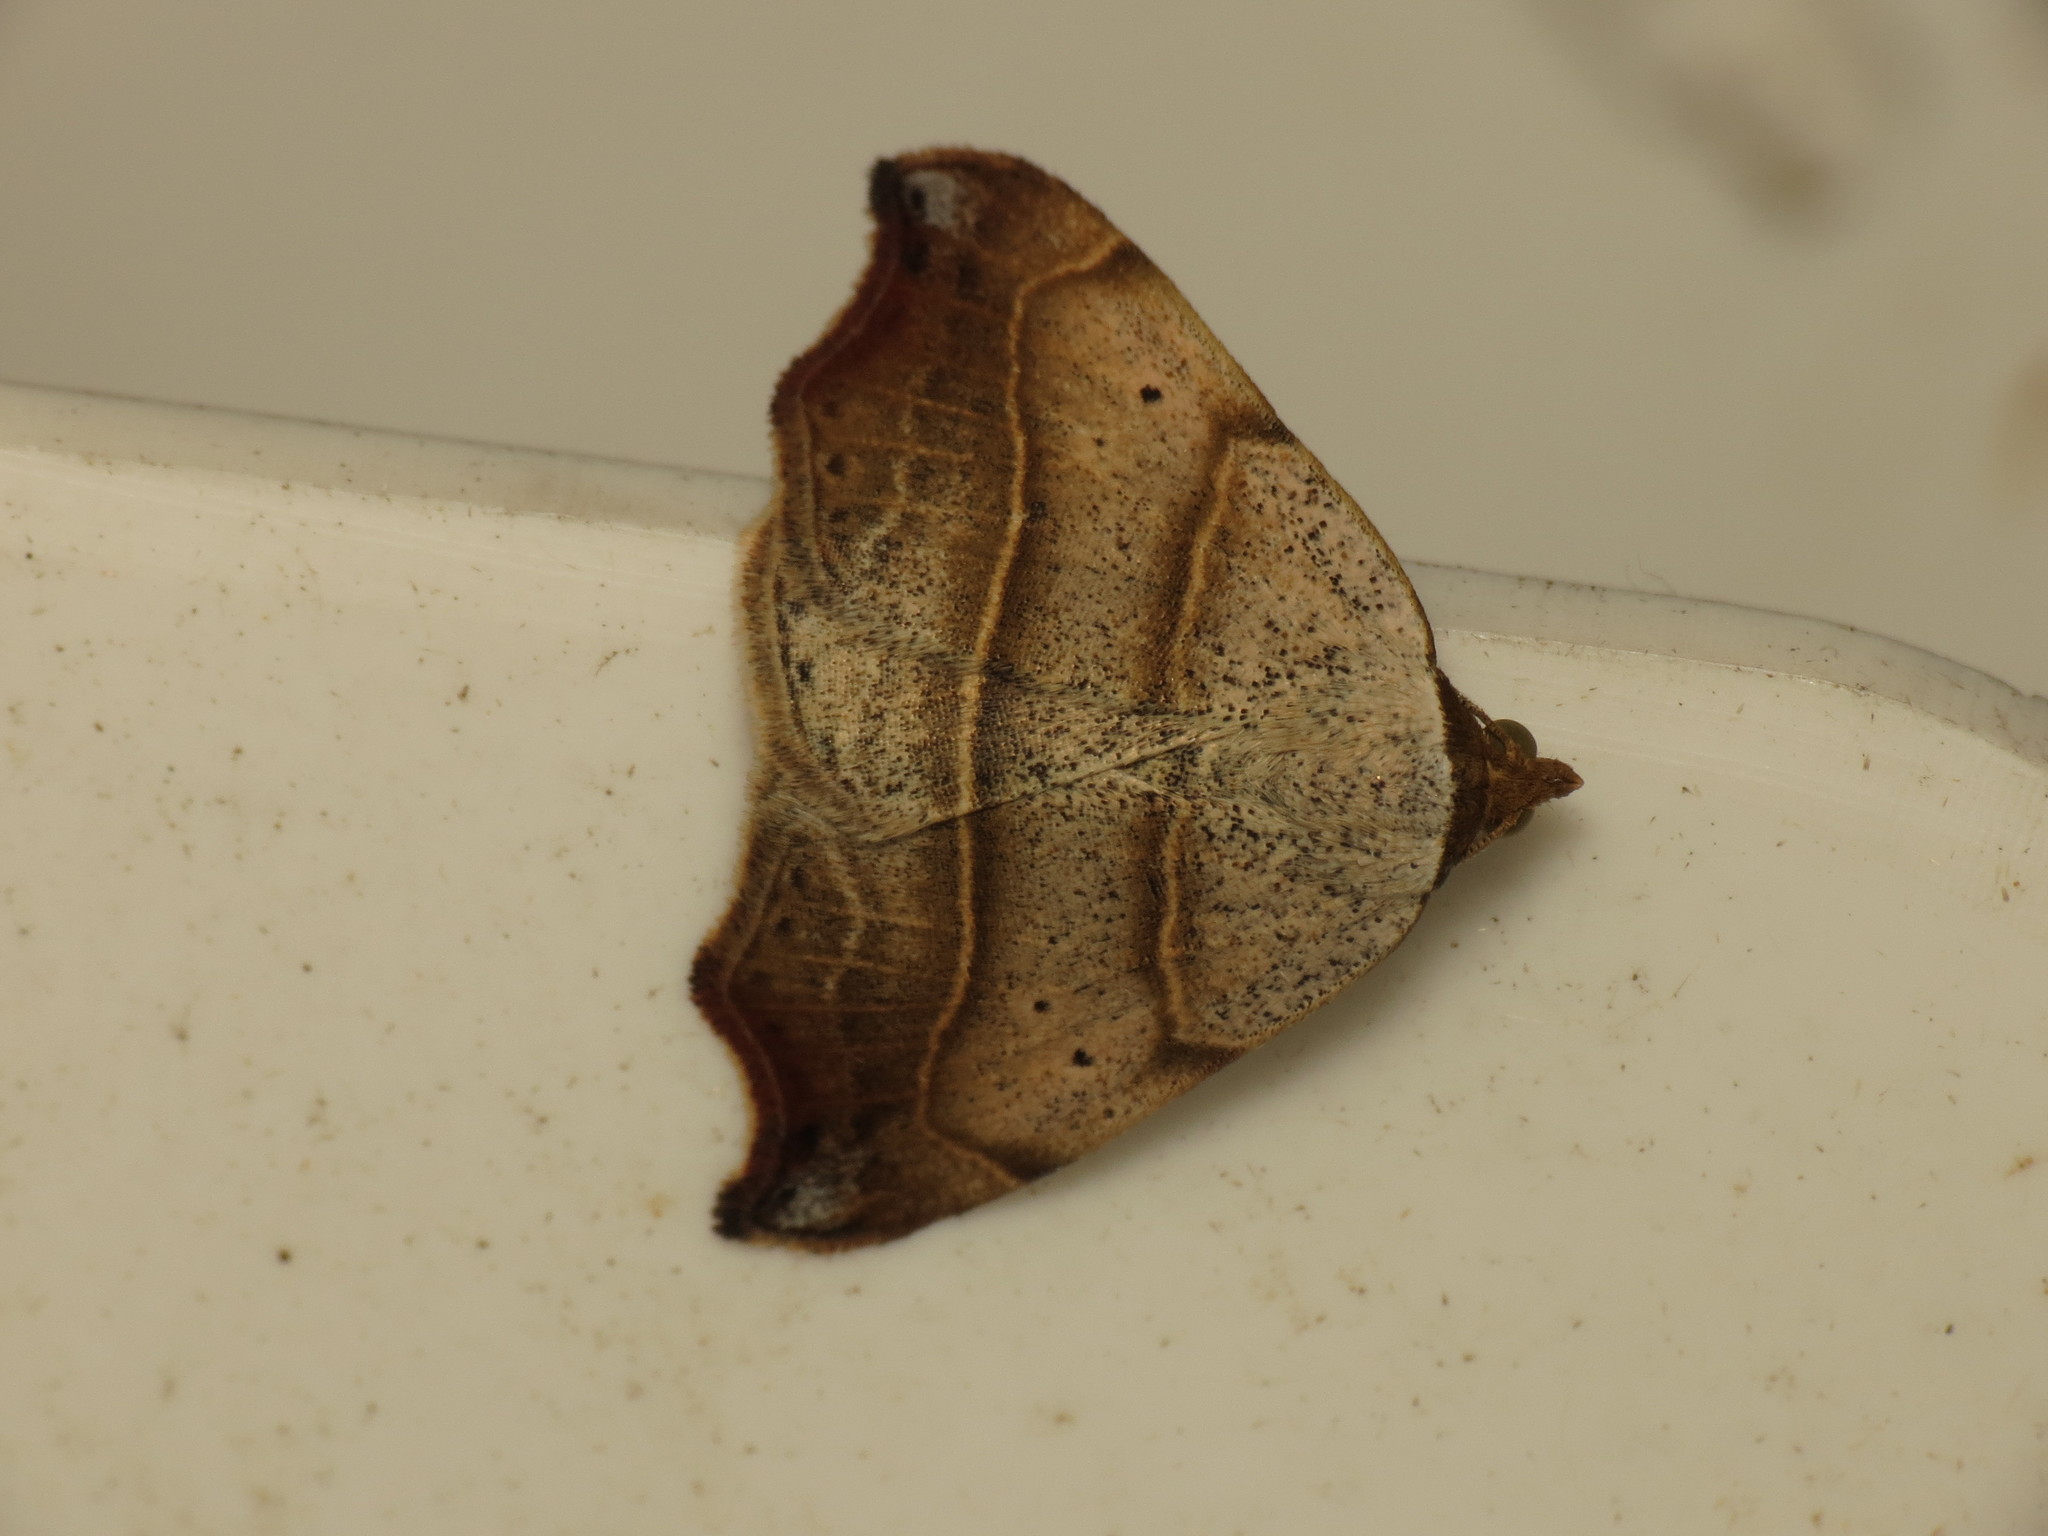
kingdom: Animalia
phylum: Arthropoda
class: Insecta
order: Lepidoptera
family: Erebidae
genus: Laspeyria
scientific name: Laspeyria flexula
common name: Beautiful hook-tip
